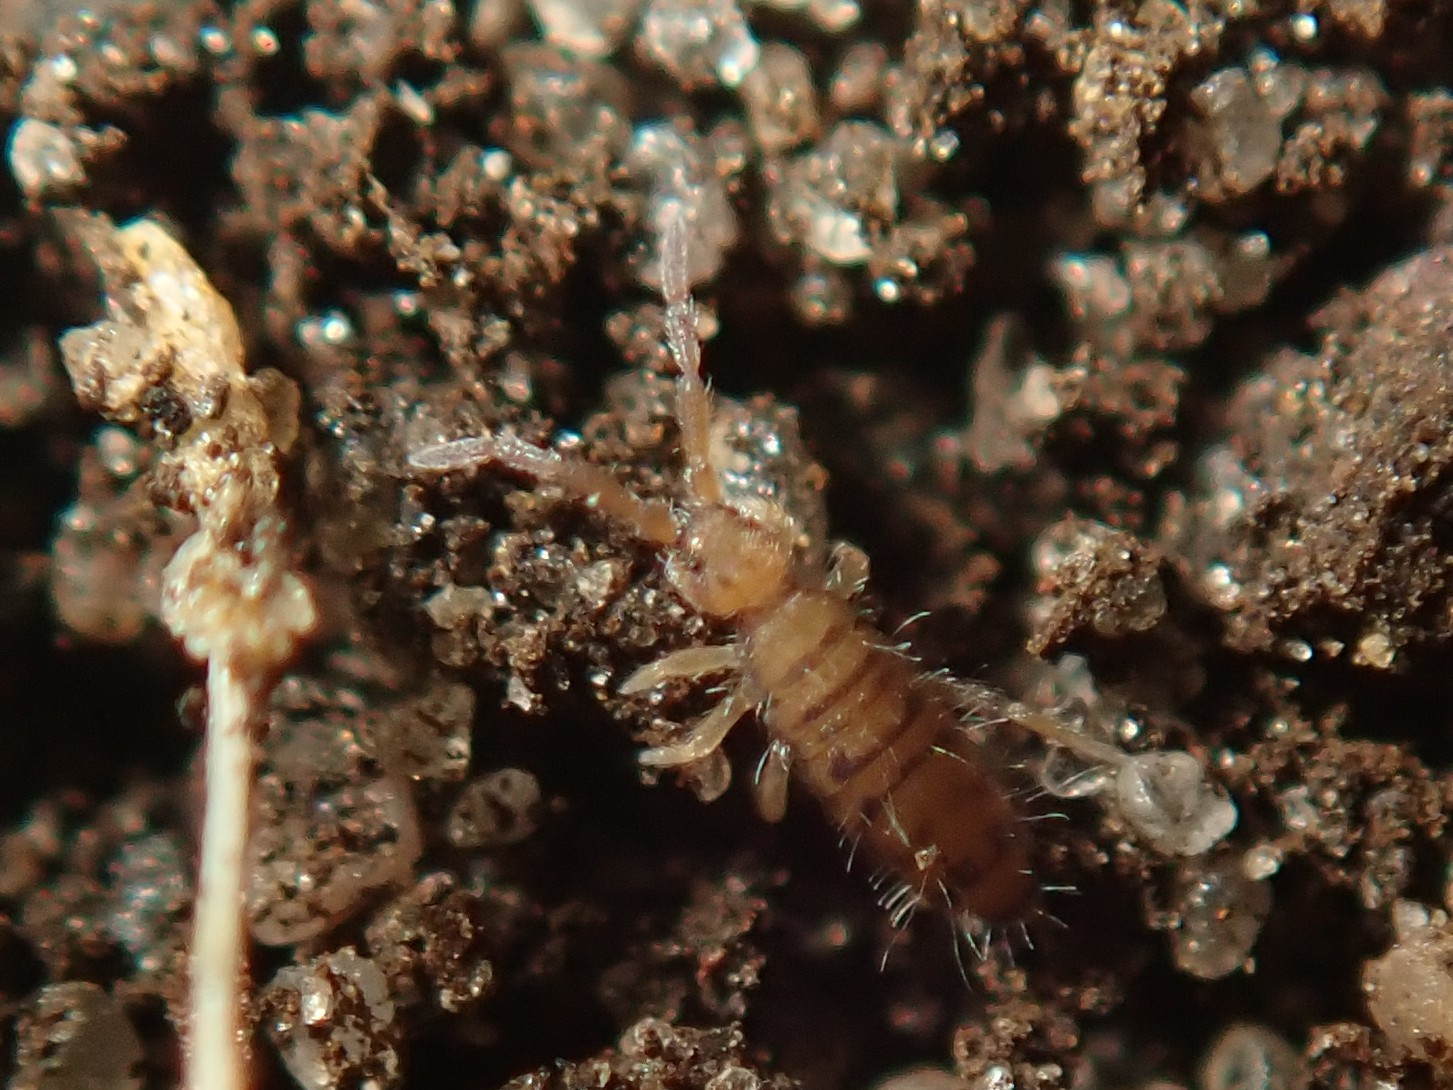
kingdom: Animalia
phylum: Arthropoda
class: Collembola
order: Entomobryomorpha
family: Entomobryidae
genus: Entomobrya
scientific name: Entomobrya multifasciata
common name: Springtail
